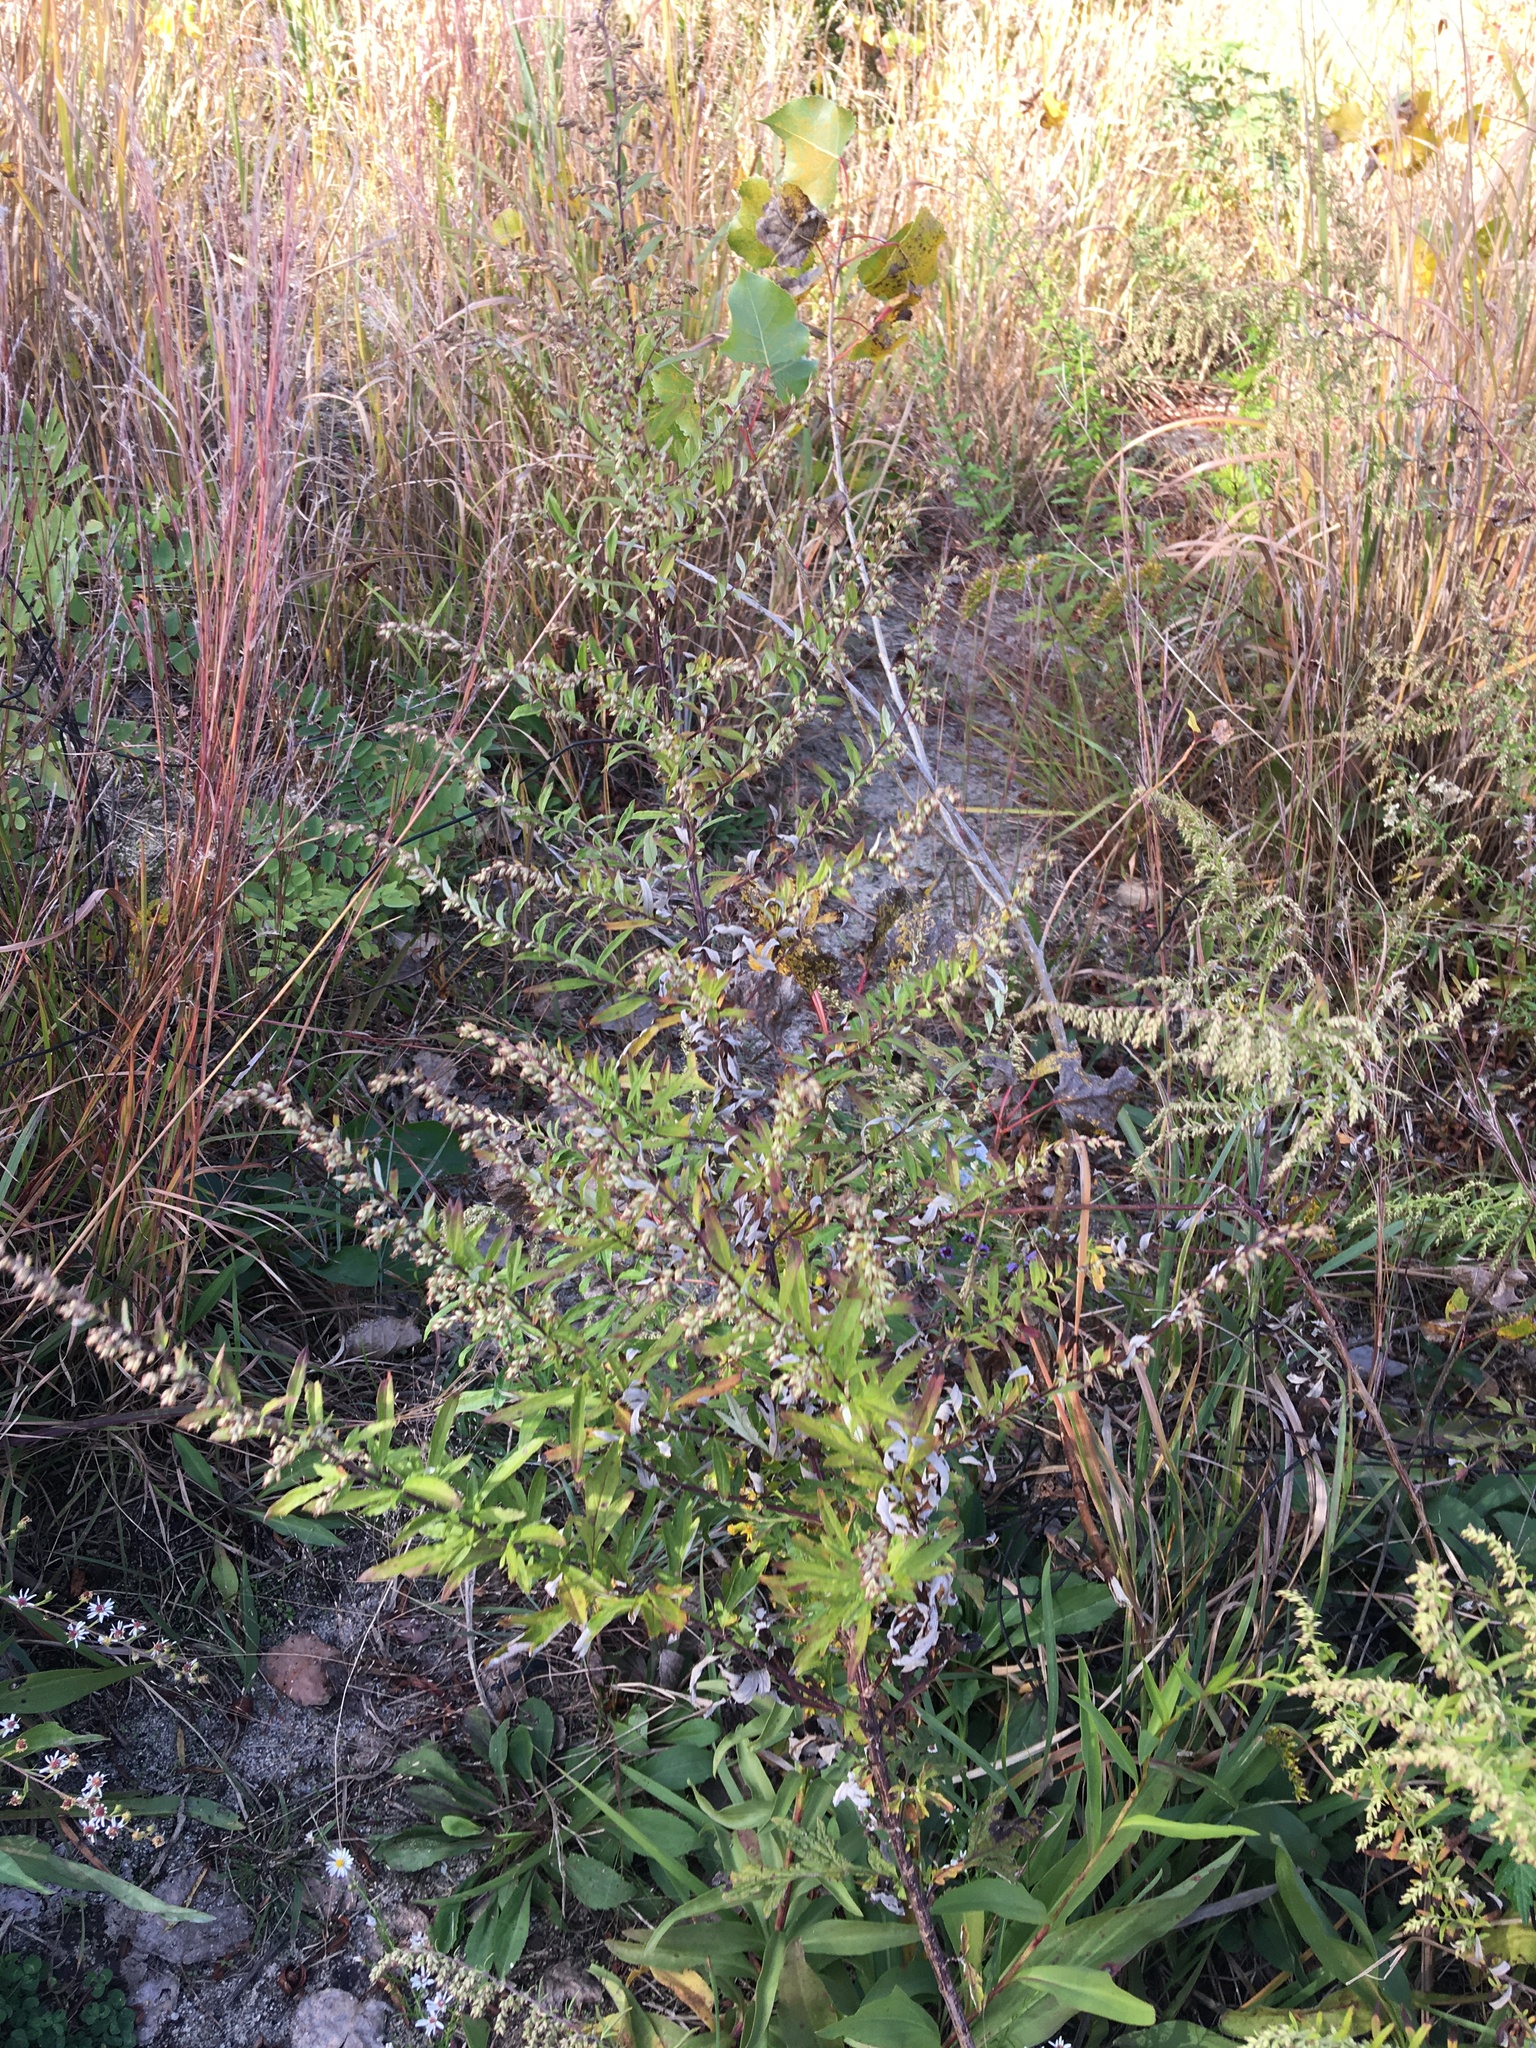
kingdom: Plantae
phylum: Tracheophyta
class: Magnoliopsida
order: Asterales
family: Asteraceae
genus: Artemisia
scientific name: Artemisia vulgaris
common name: Mugwort
